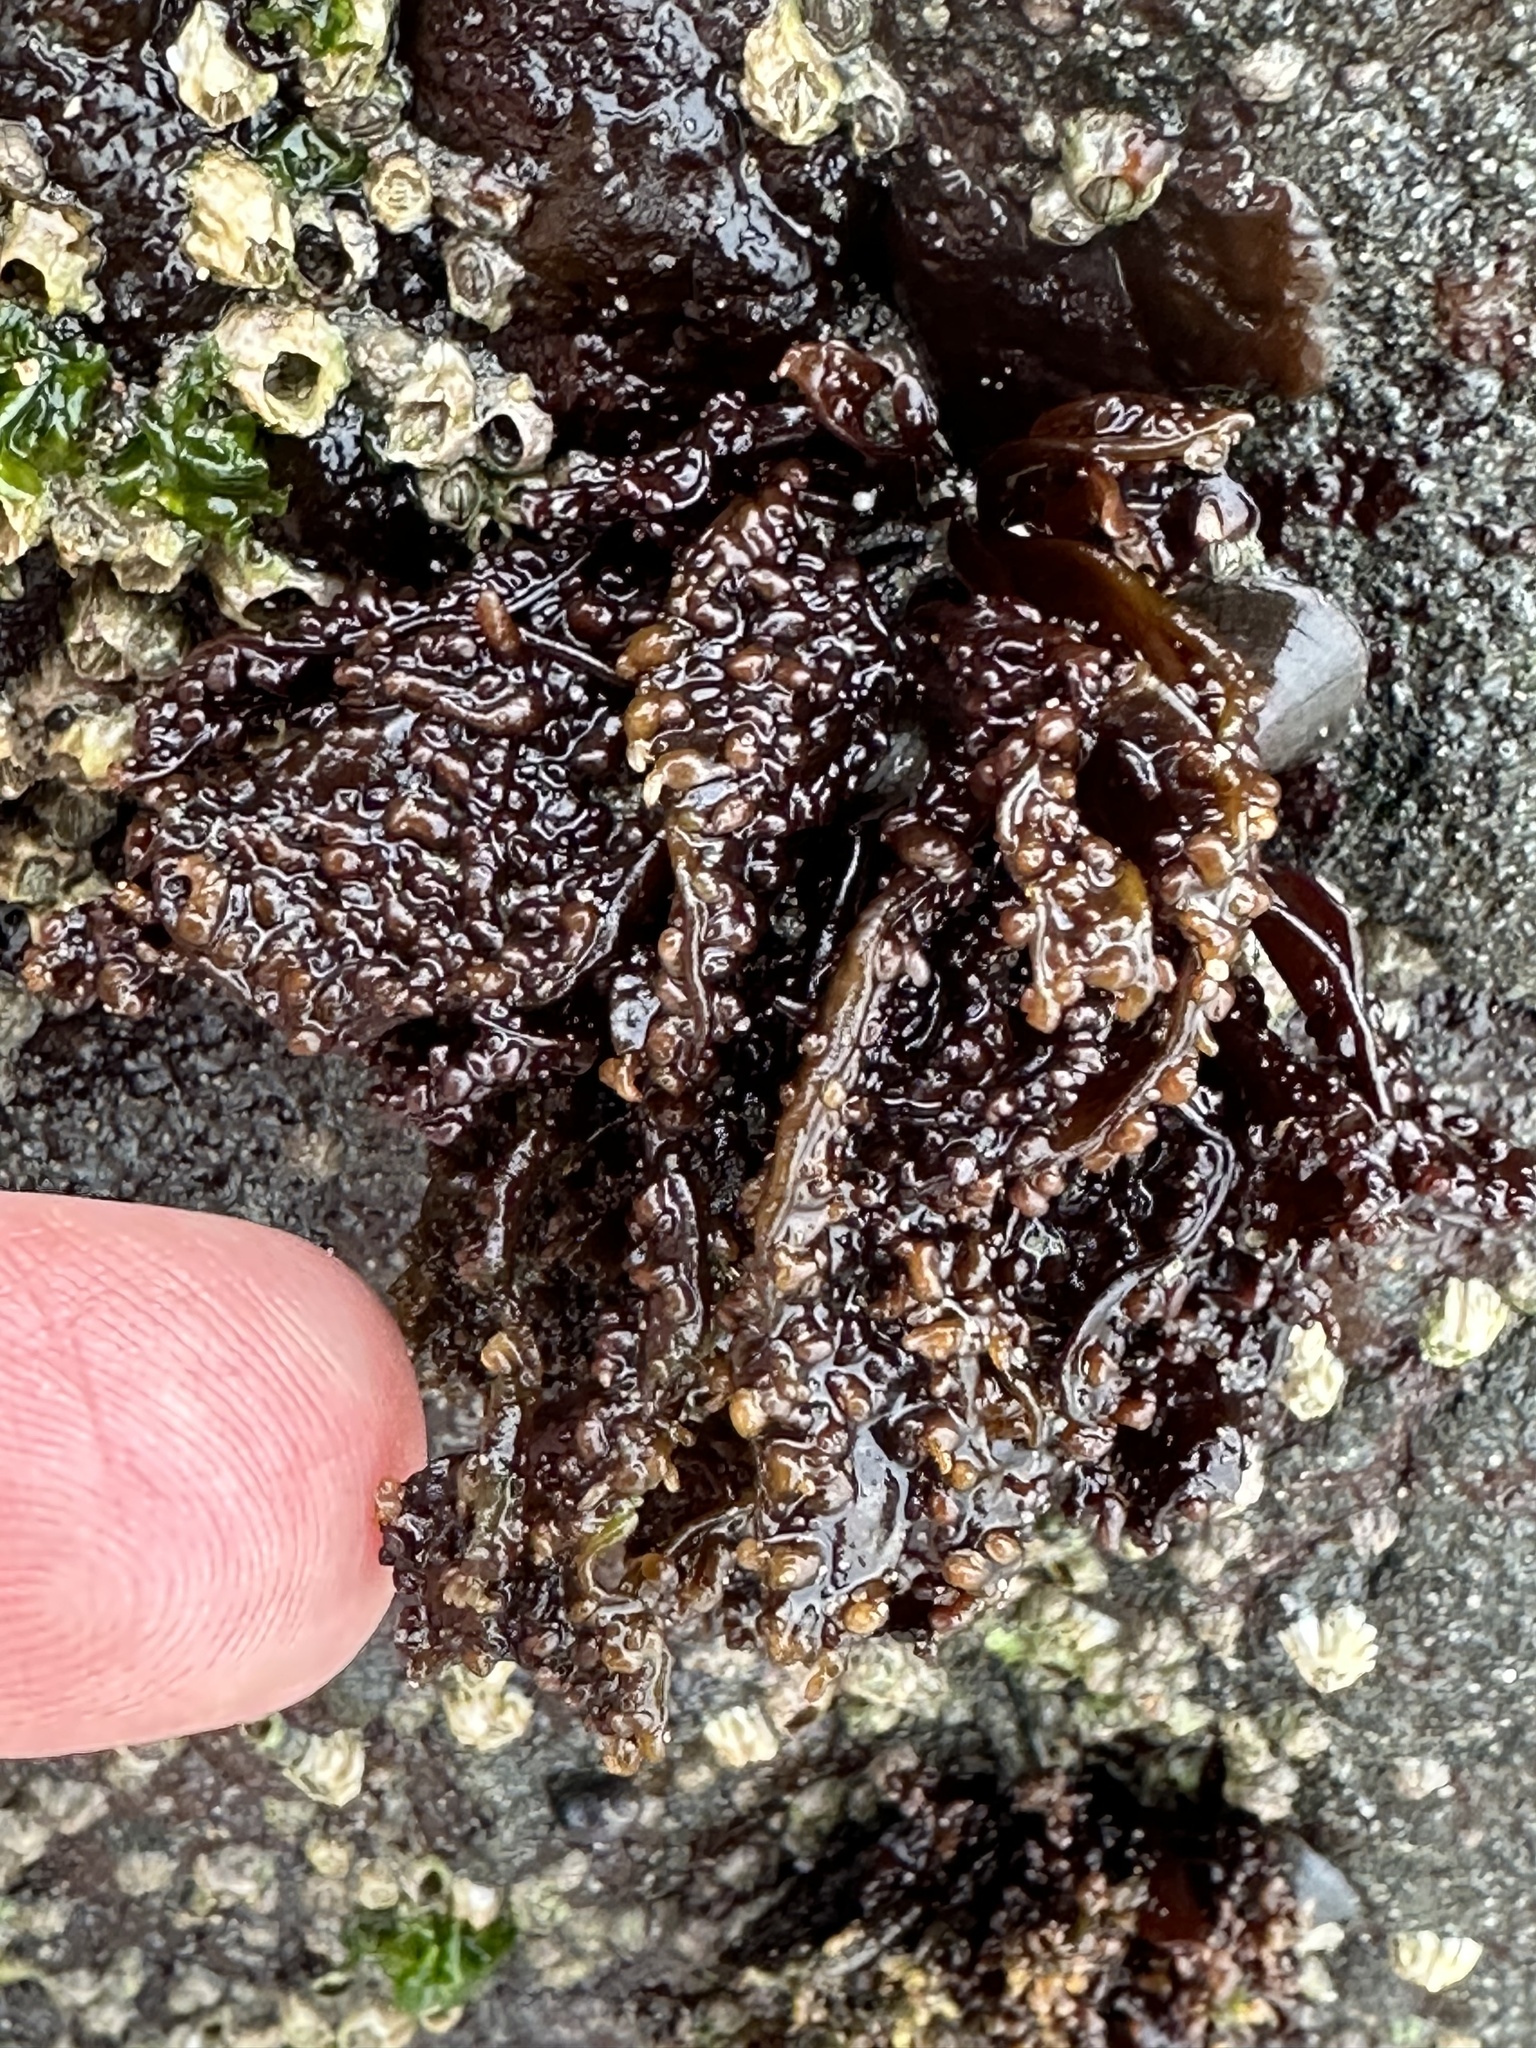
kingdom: Plantae
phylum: Rhodophyta
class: Florideophyceae
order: Gigartinales
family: Phyllophoraceae
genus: Mastocarpus
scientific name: Mastocarpus papillatus
